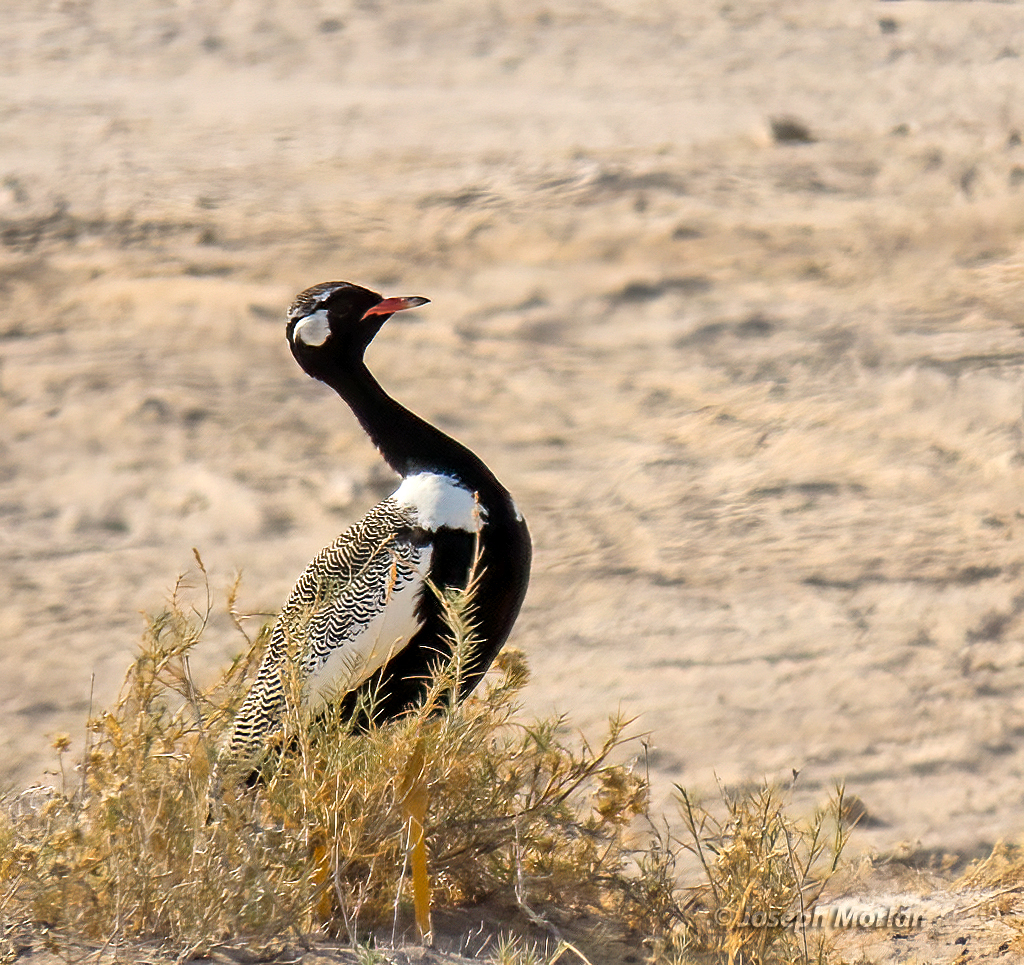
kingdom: Animalia
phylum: Chordata
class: Aves
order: Otidiformes
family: Otididae
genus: Afrotis
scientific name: Afrotis afraoides
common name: Northern black korhaan
